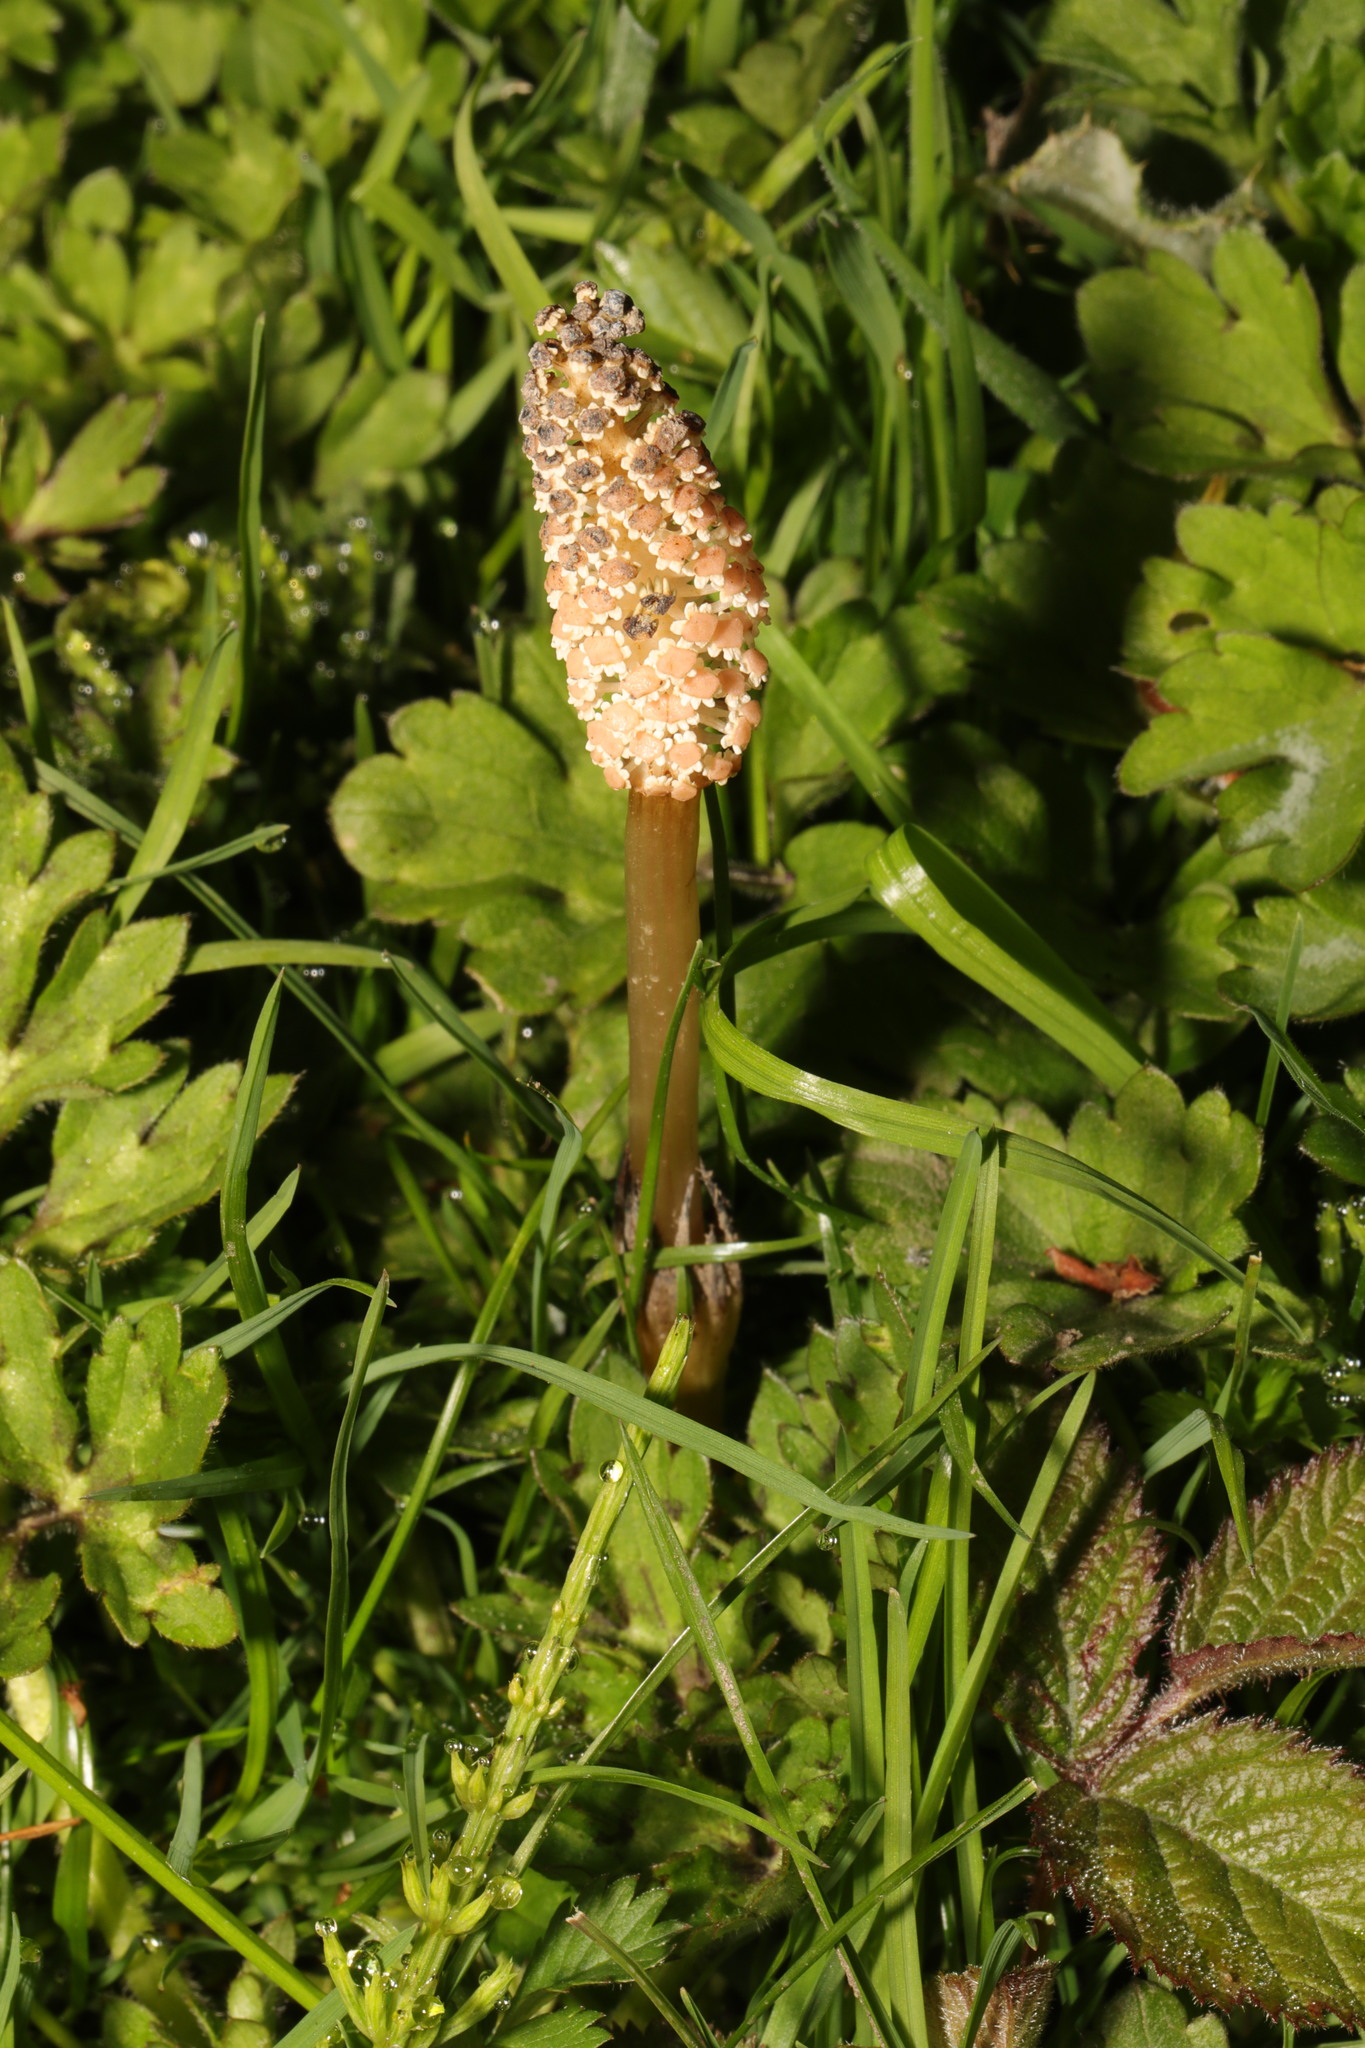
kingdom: Plantae
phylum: Tracheophyta
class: Polypodiopsida
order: Equisetales
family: Equisetaceae
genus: Equisetum
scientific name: Equisetum arvense
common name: Field horsetail
